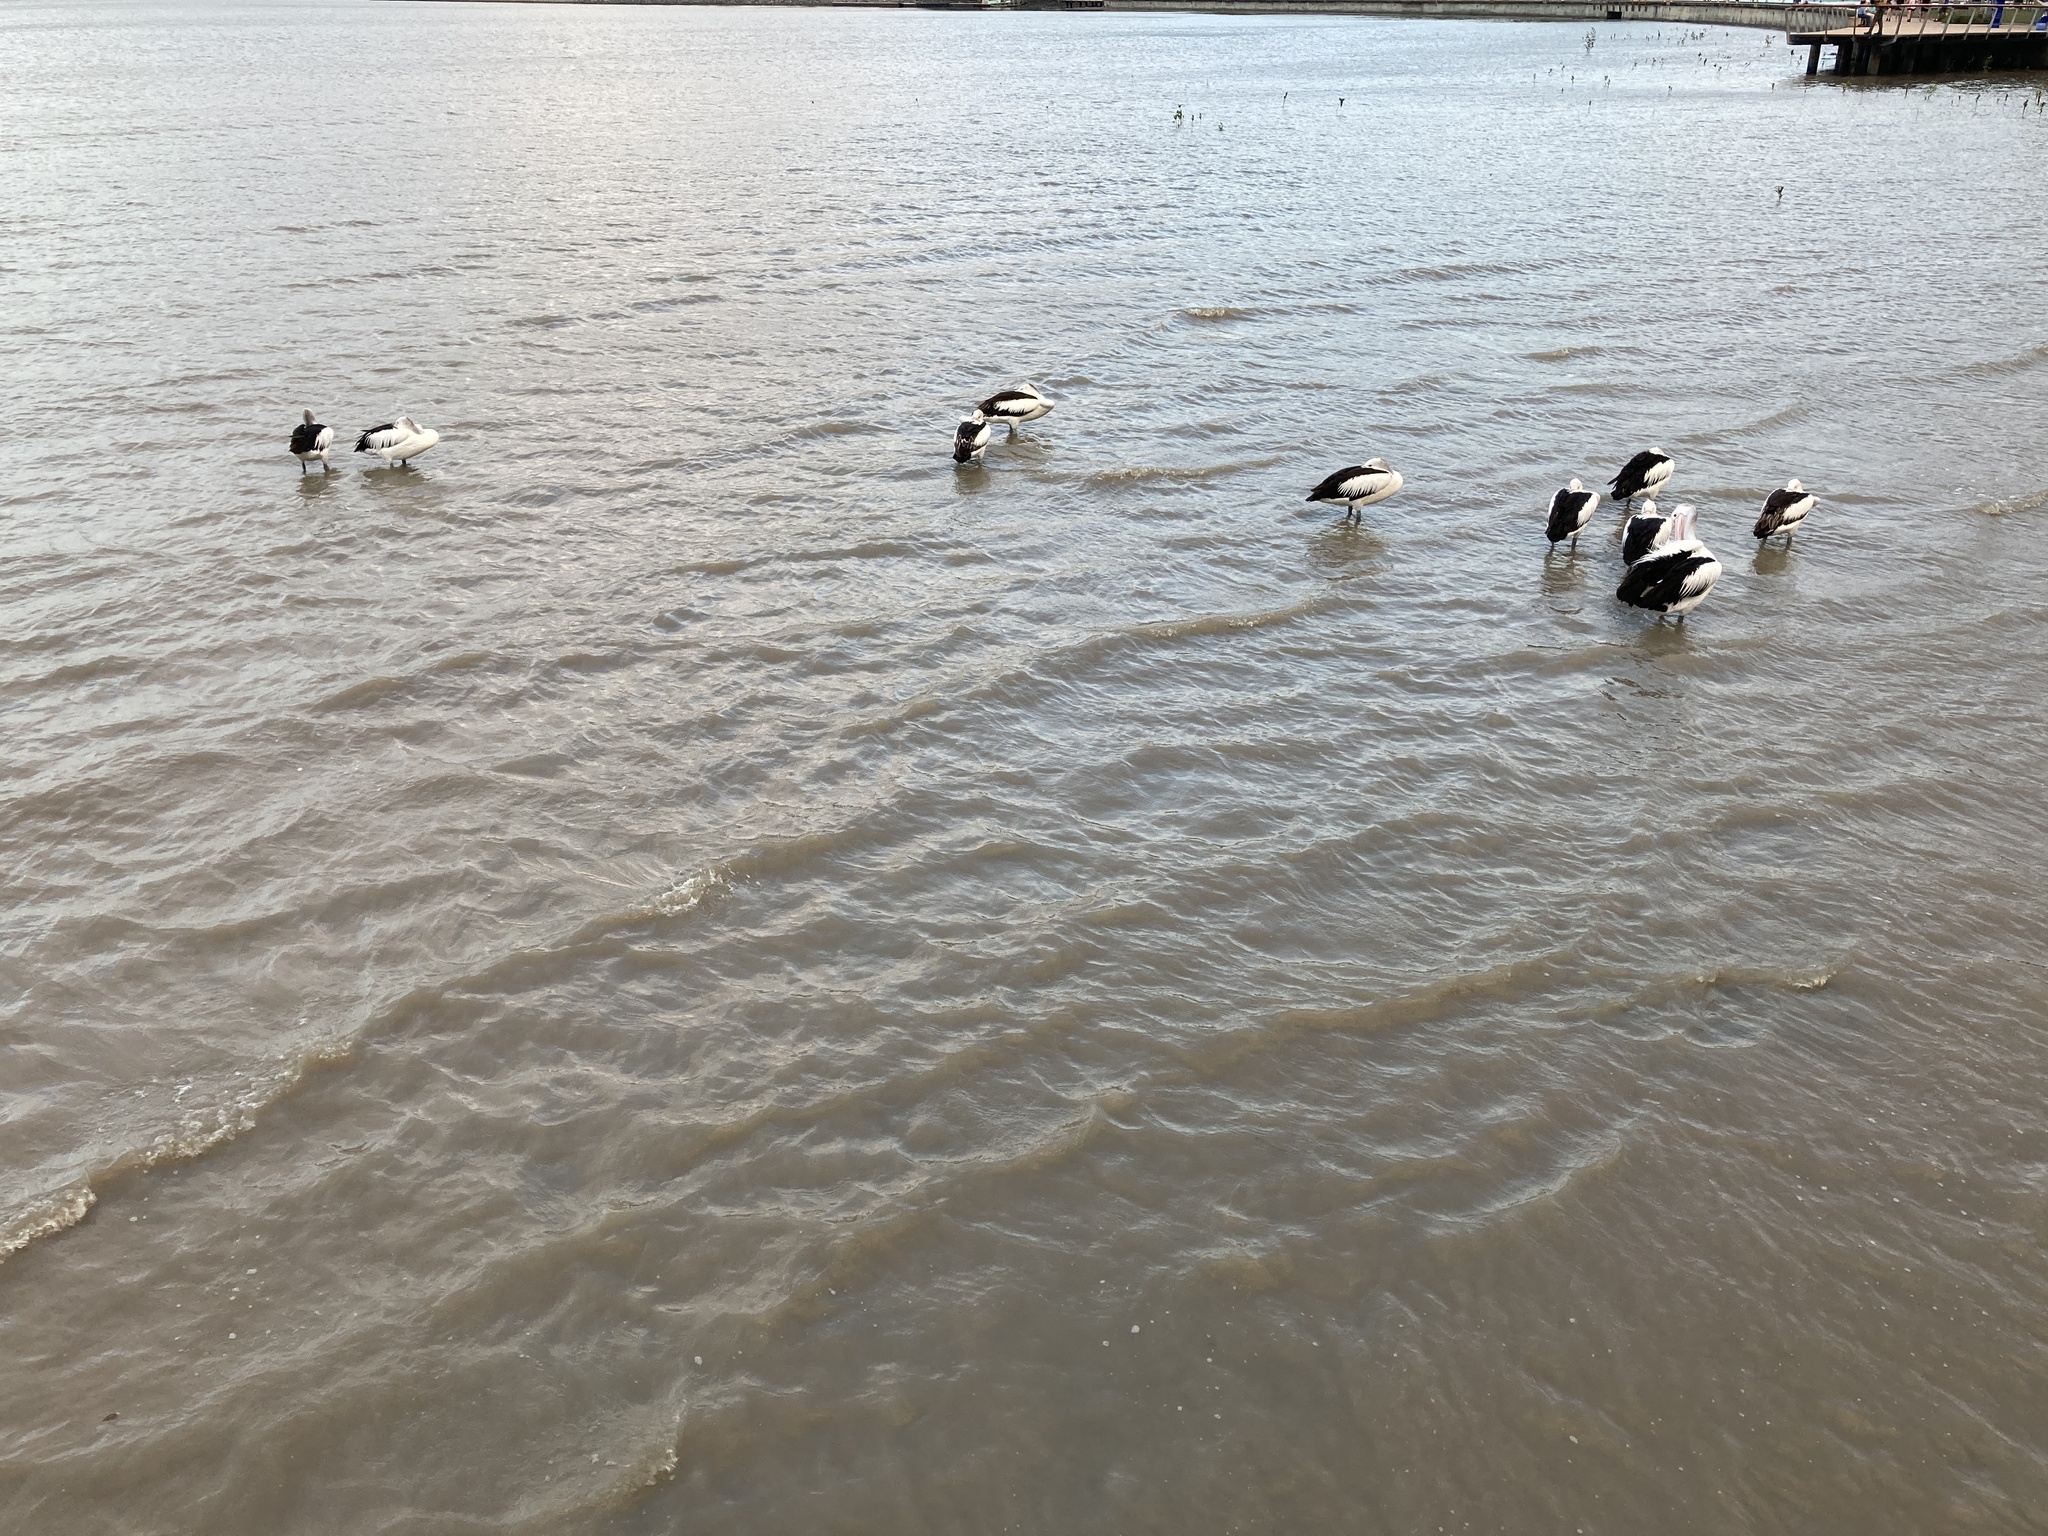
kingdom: Animalia
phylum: Chordata
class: Aves
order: Pelecaniformes
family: Pelecanidae
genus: Pelecanus
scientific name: Pelecanus conspicillatus
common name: Australian pelican
